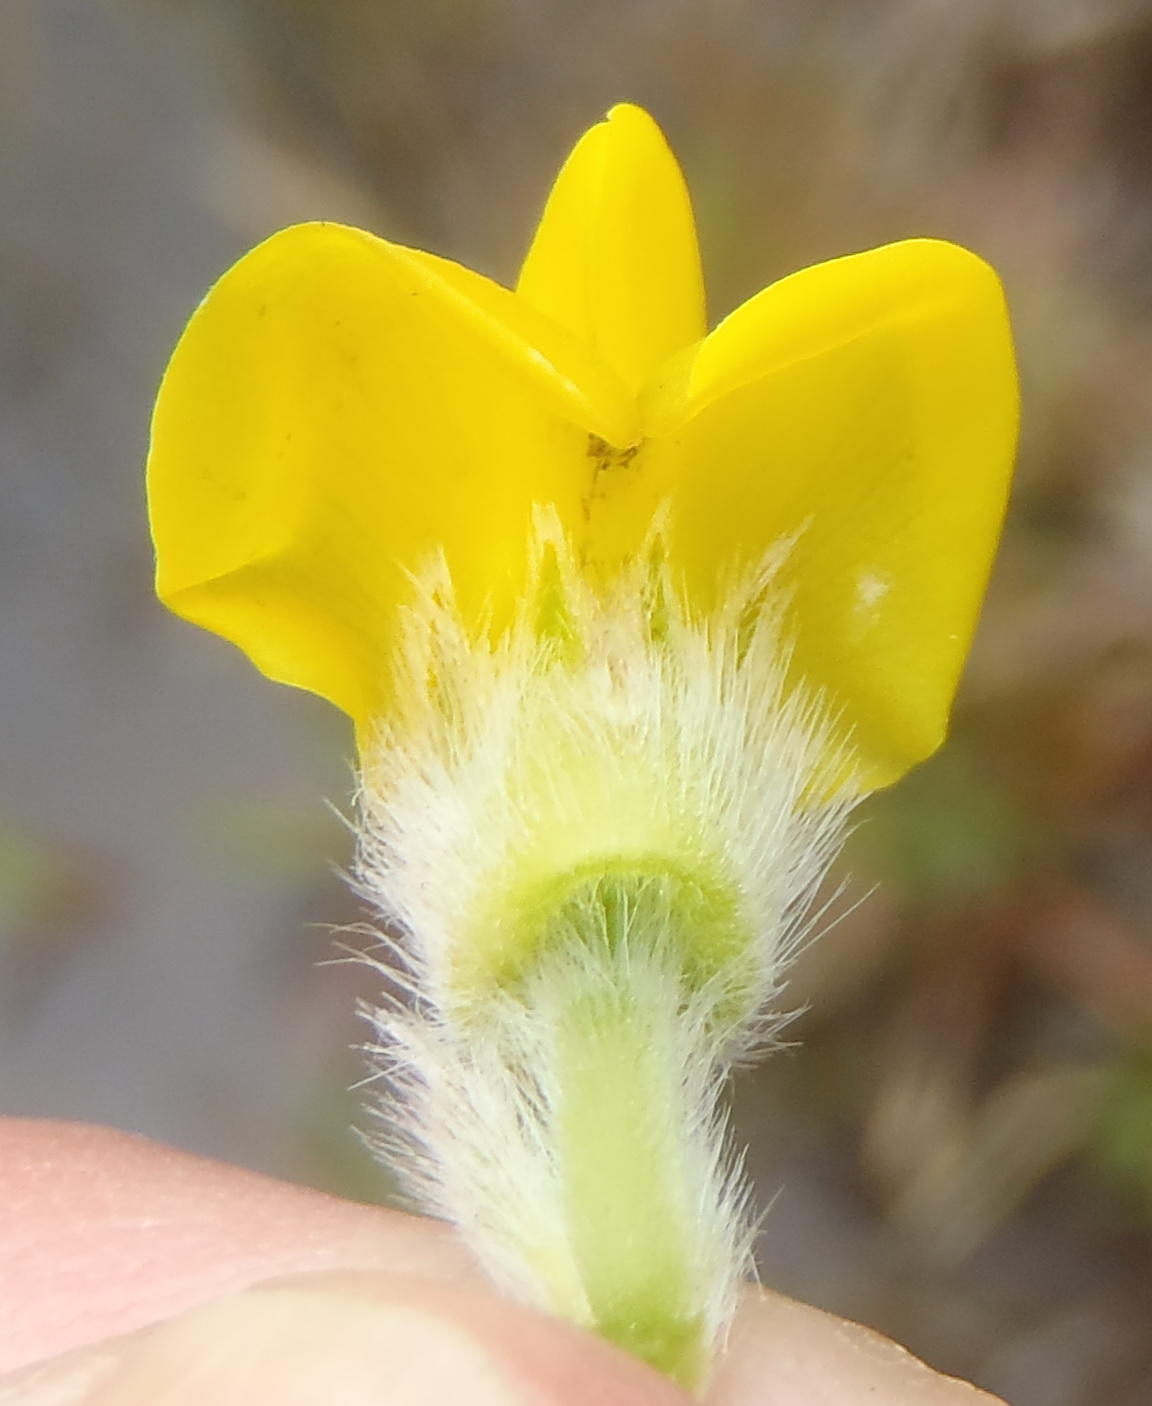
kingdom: Plantae
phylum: Tracheophyta
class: Magnoliopsida
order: Fabales
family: Fabaceae
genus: Liparia
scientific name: Liparia hirsuta
